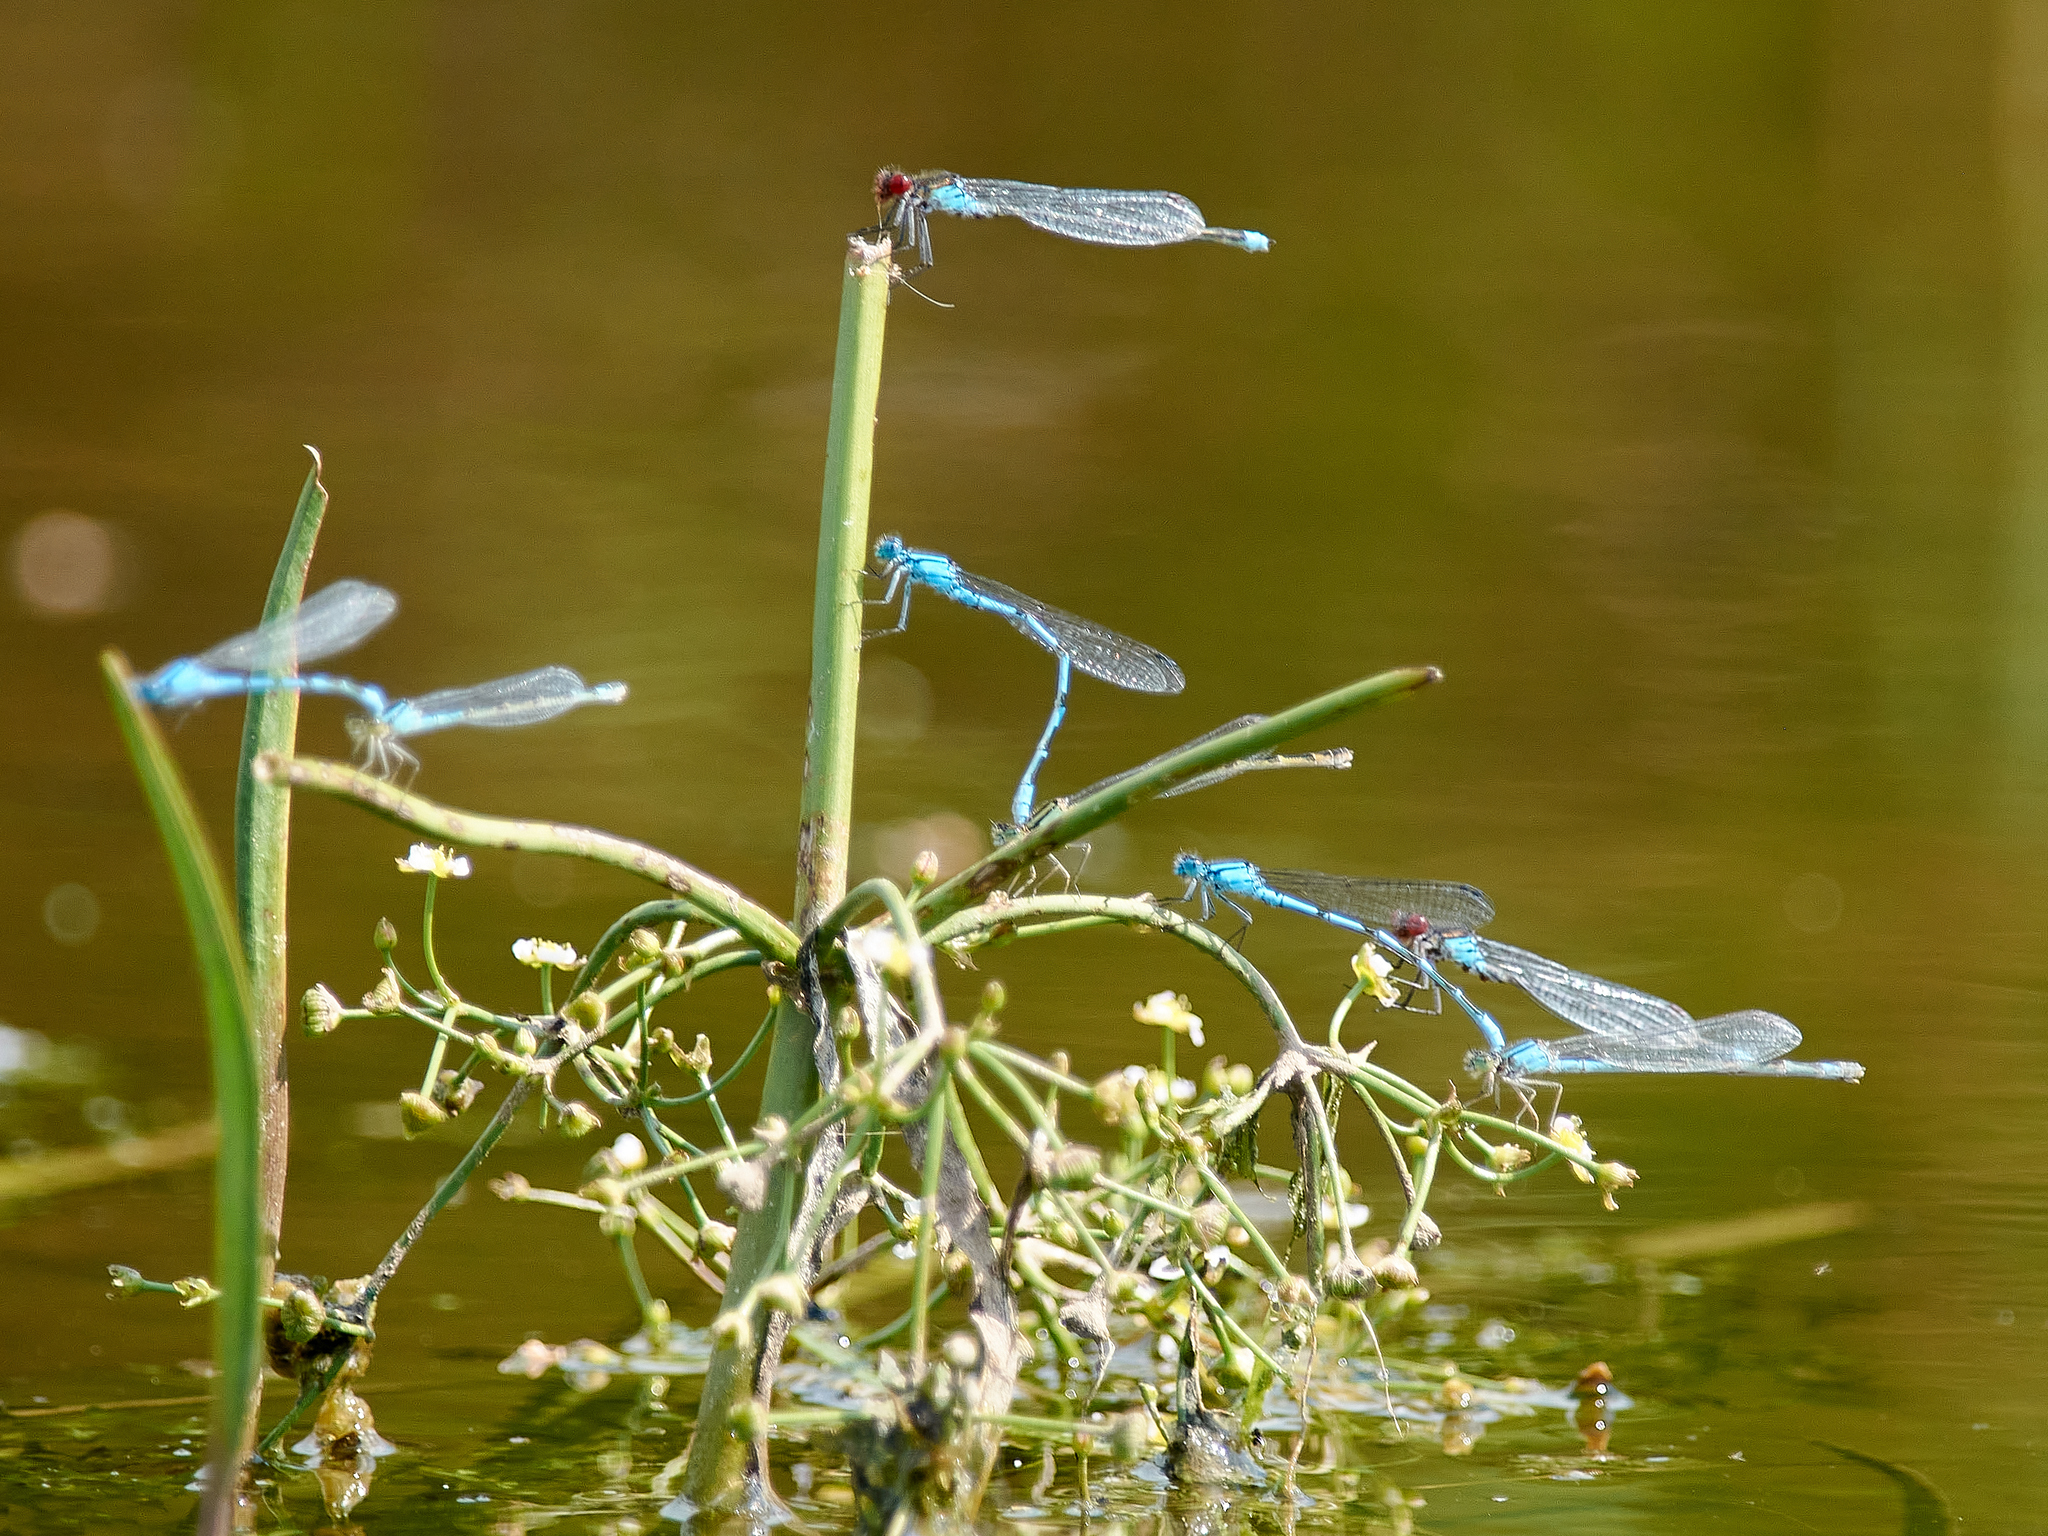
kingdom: Animalia
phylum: Arthropoda
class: Insecta
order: Odonata
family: Coenagrionidae
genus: Erythromma
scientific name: Erythromma najas
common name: Red-eyed damselfly
